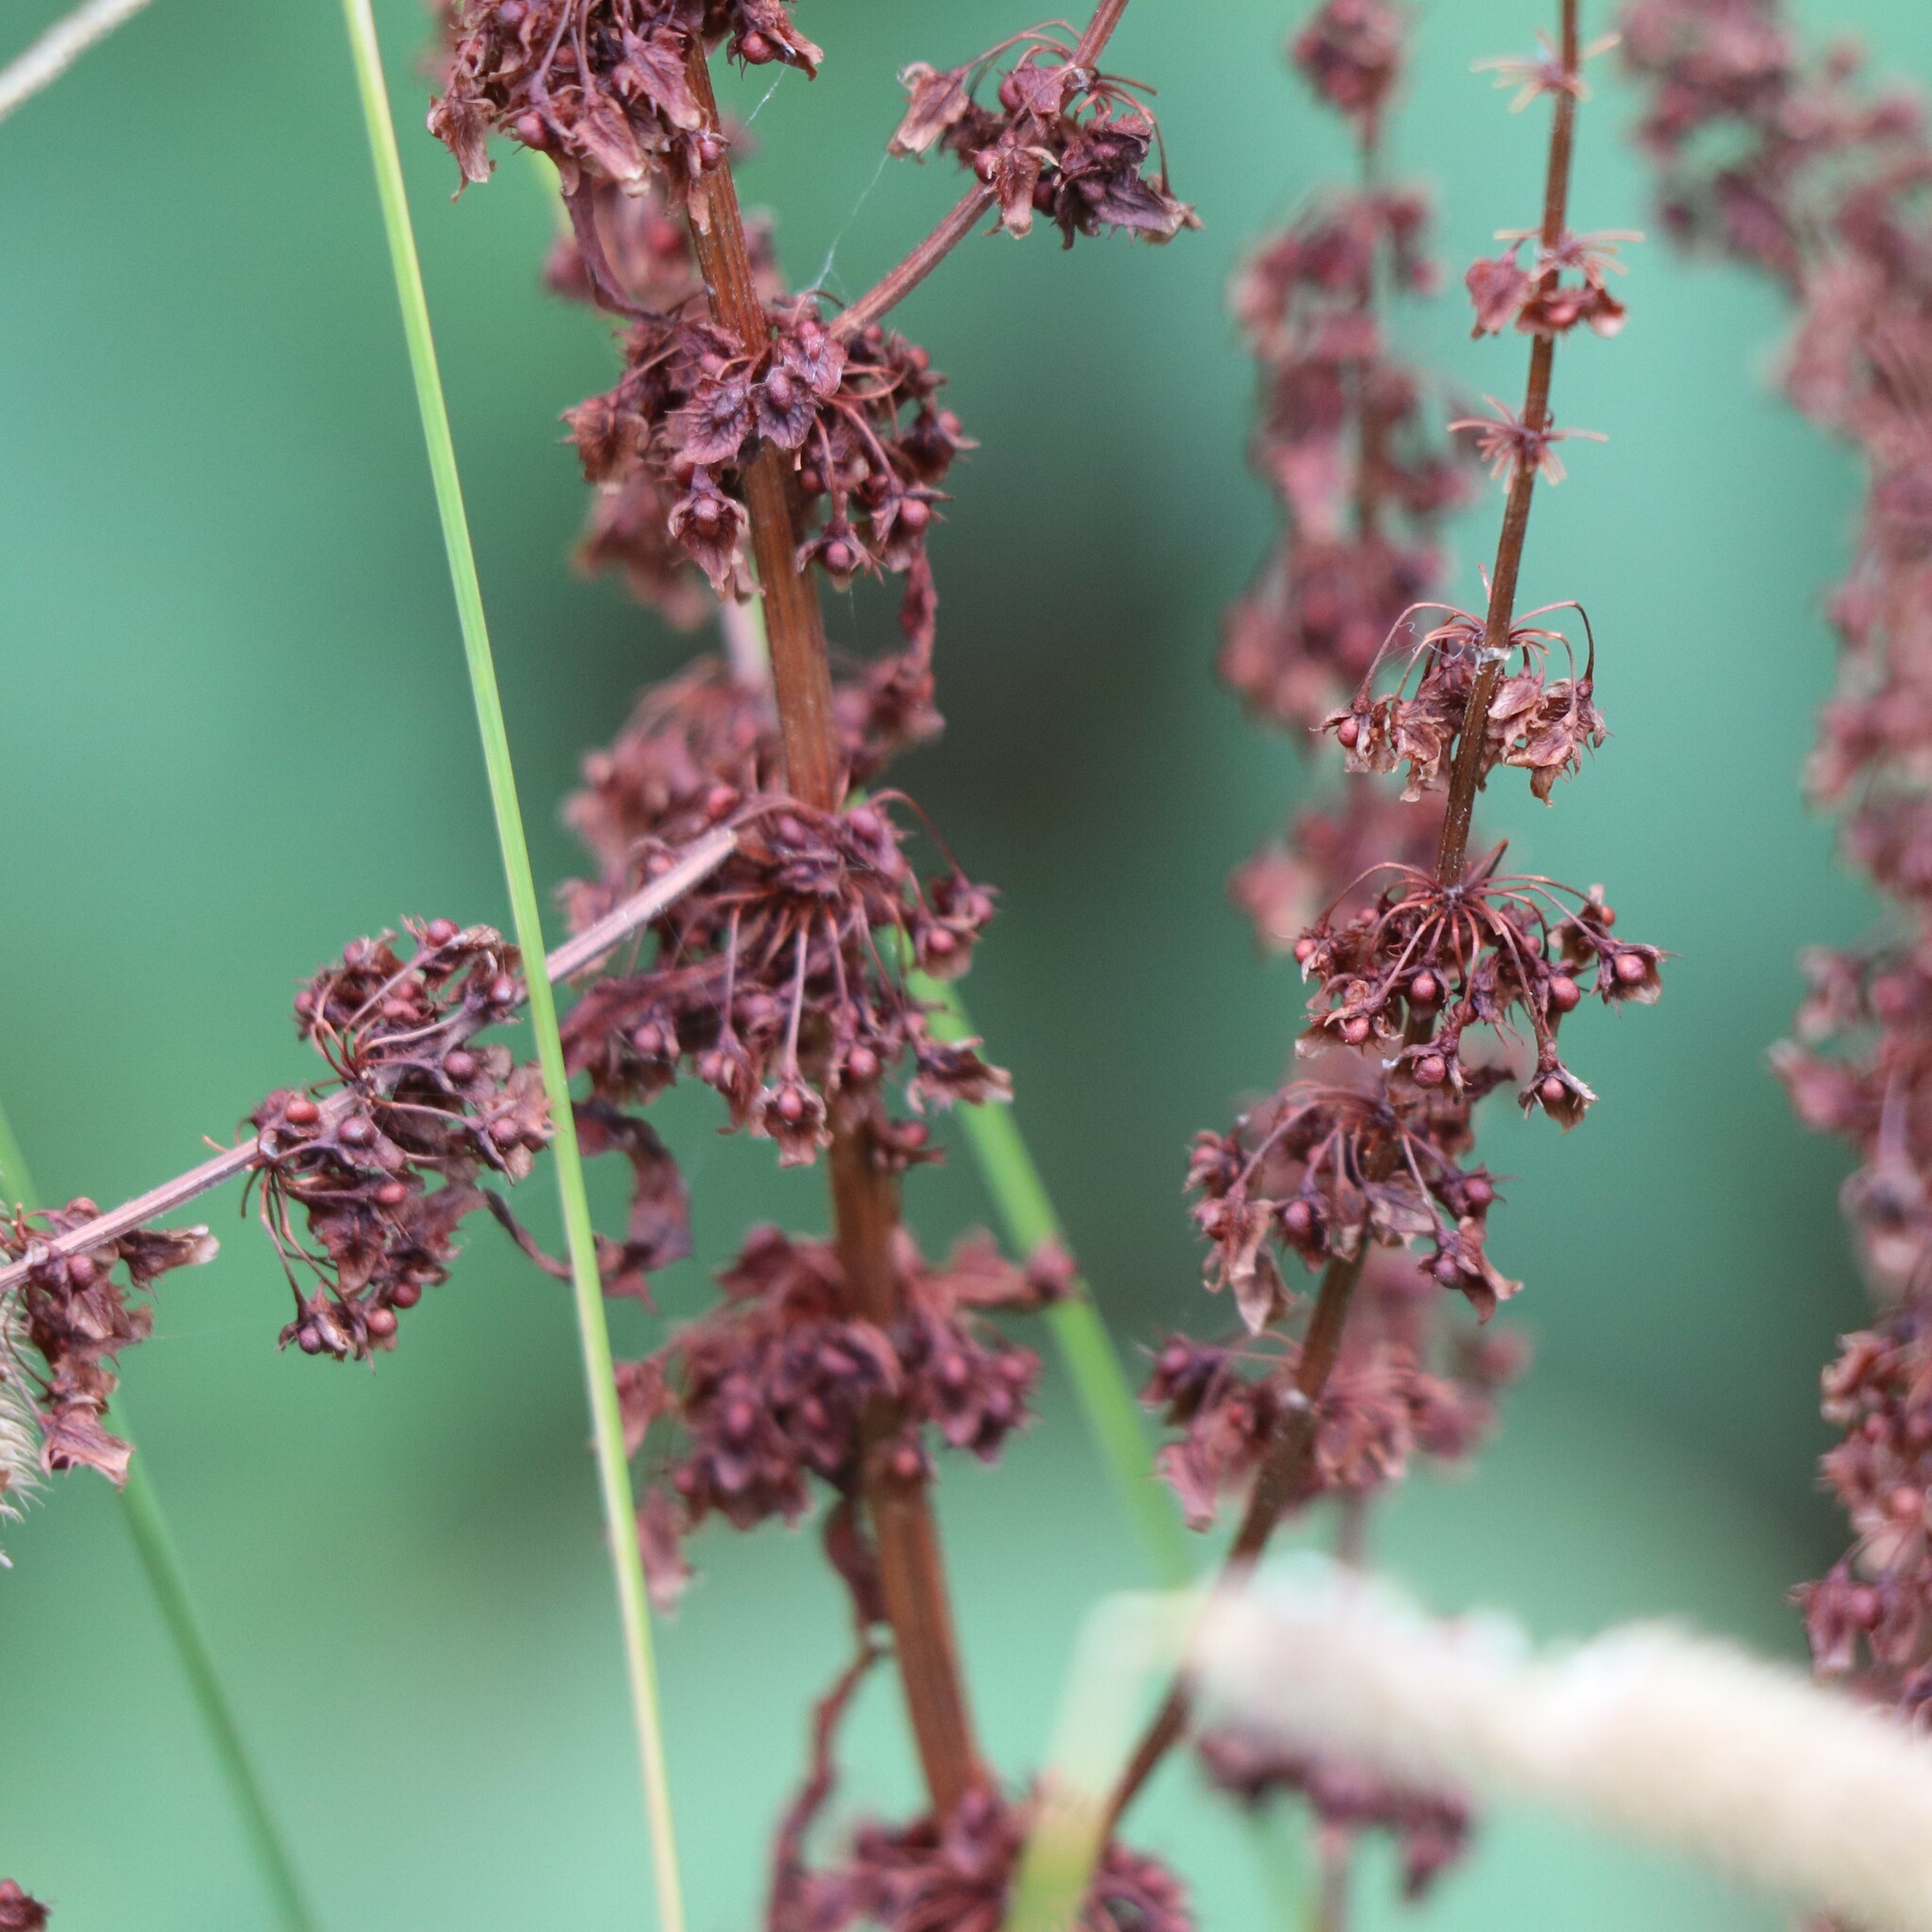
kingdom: Plantae
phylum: Tracheophyta
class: Magnoliopsida
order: Caryophyllales
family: Polygonaceae
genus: Rumex
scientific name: Rumex obtusifolius
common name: Bitter dock
